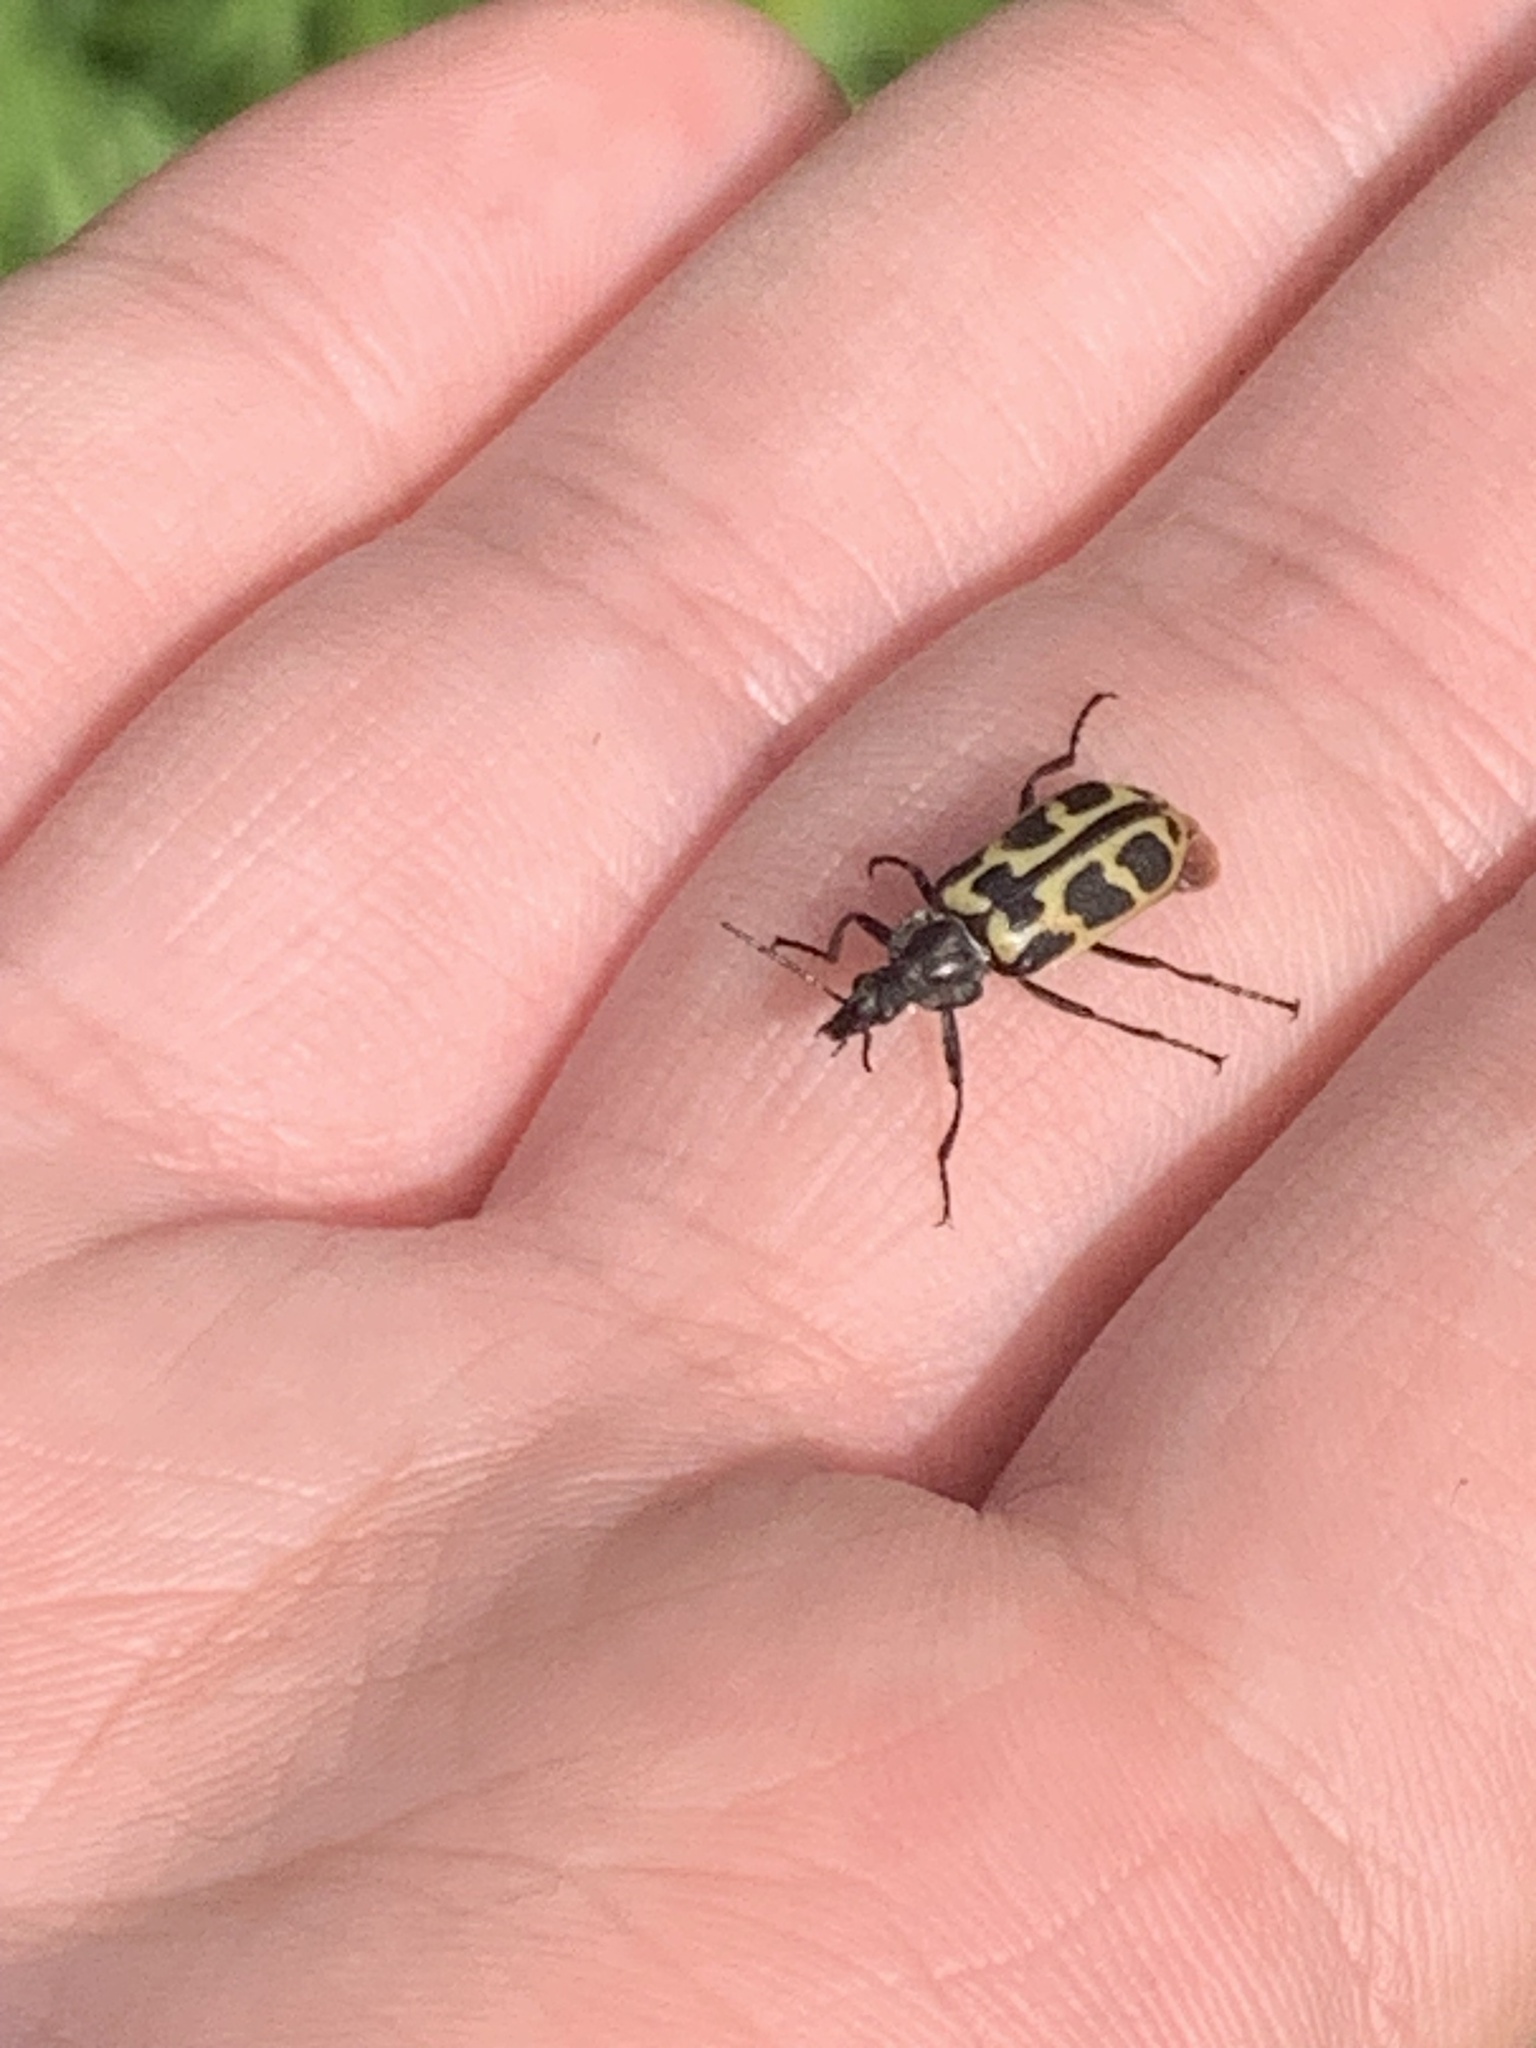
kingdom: Animalia
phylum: Arthropoda
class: Insecta
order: Coleoptera
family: Melyridae
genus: Astylus
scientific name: Astylus atromaculatus
